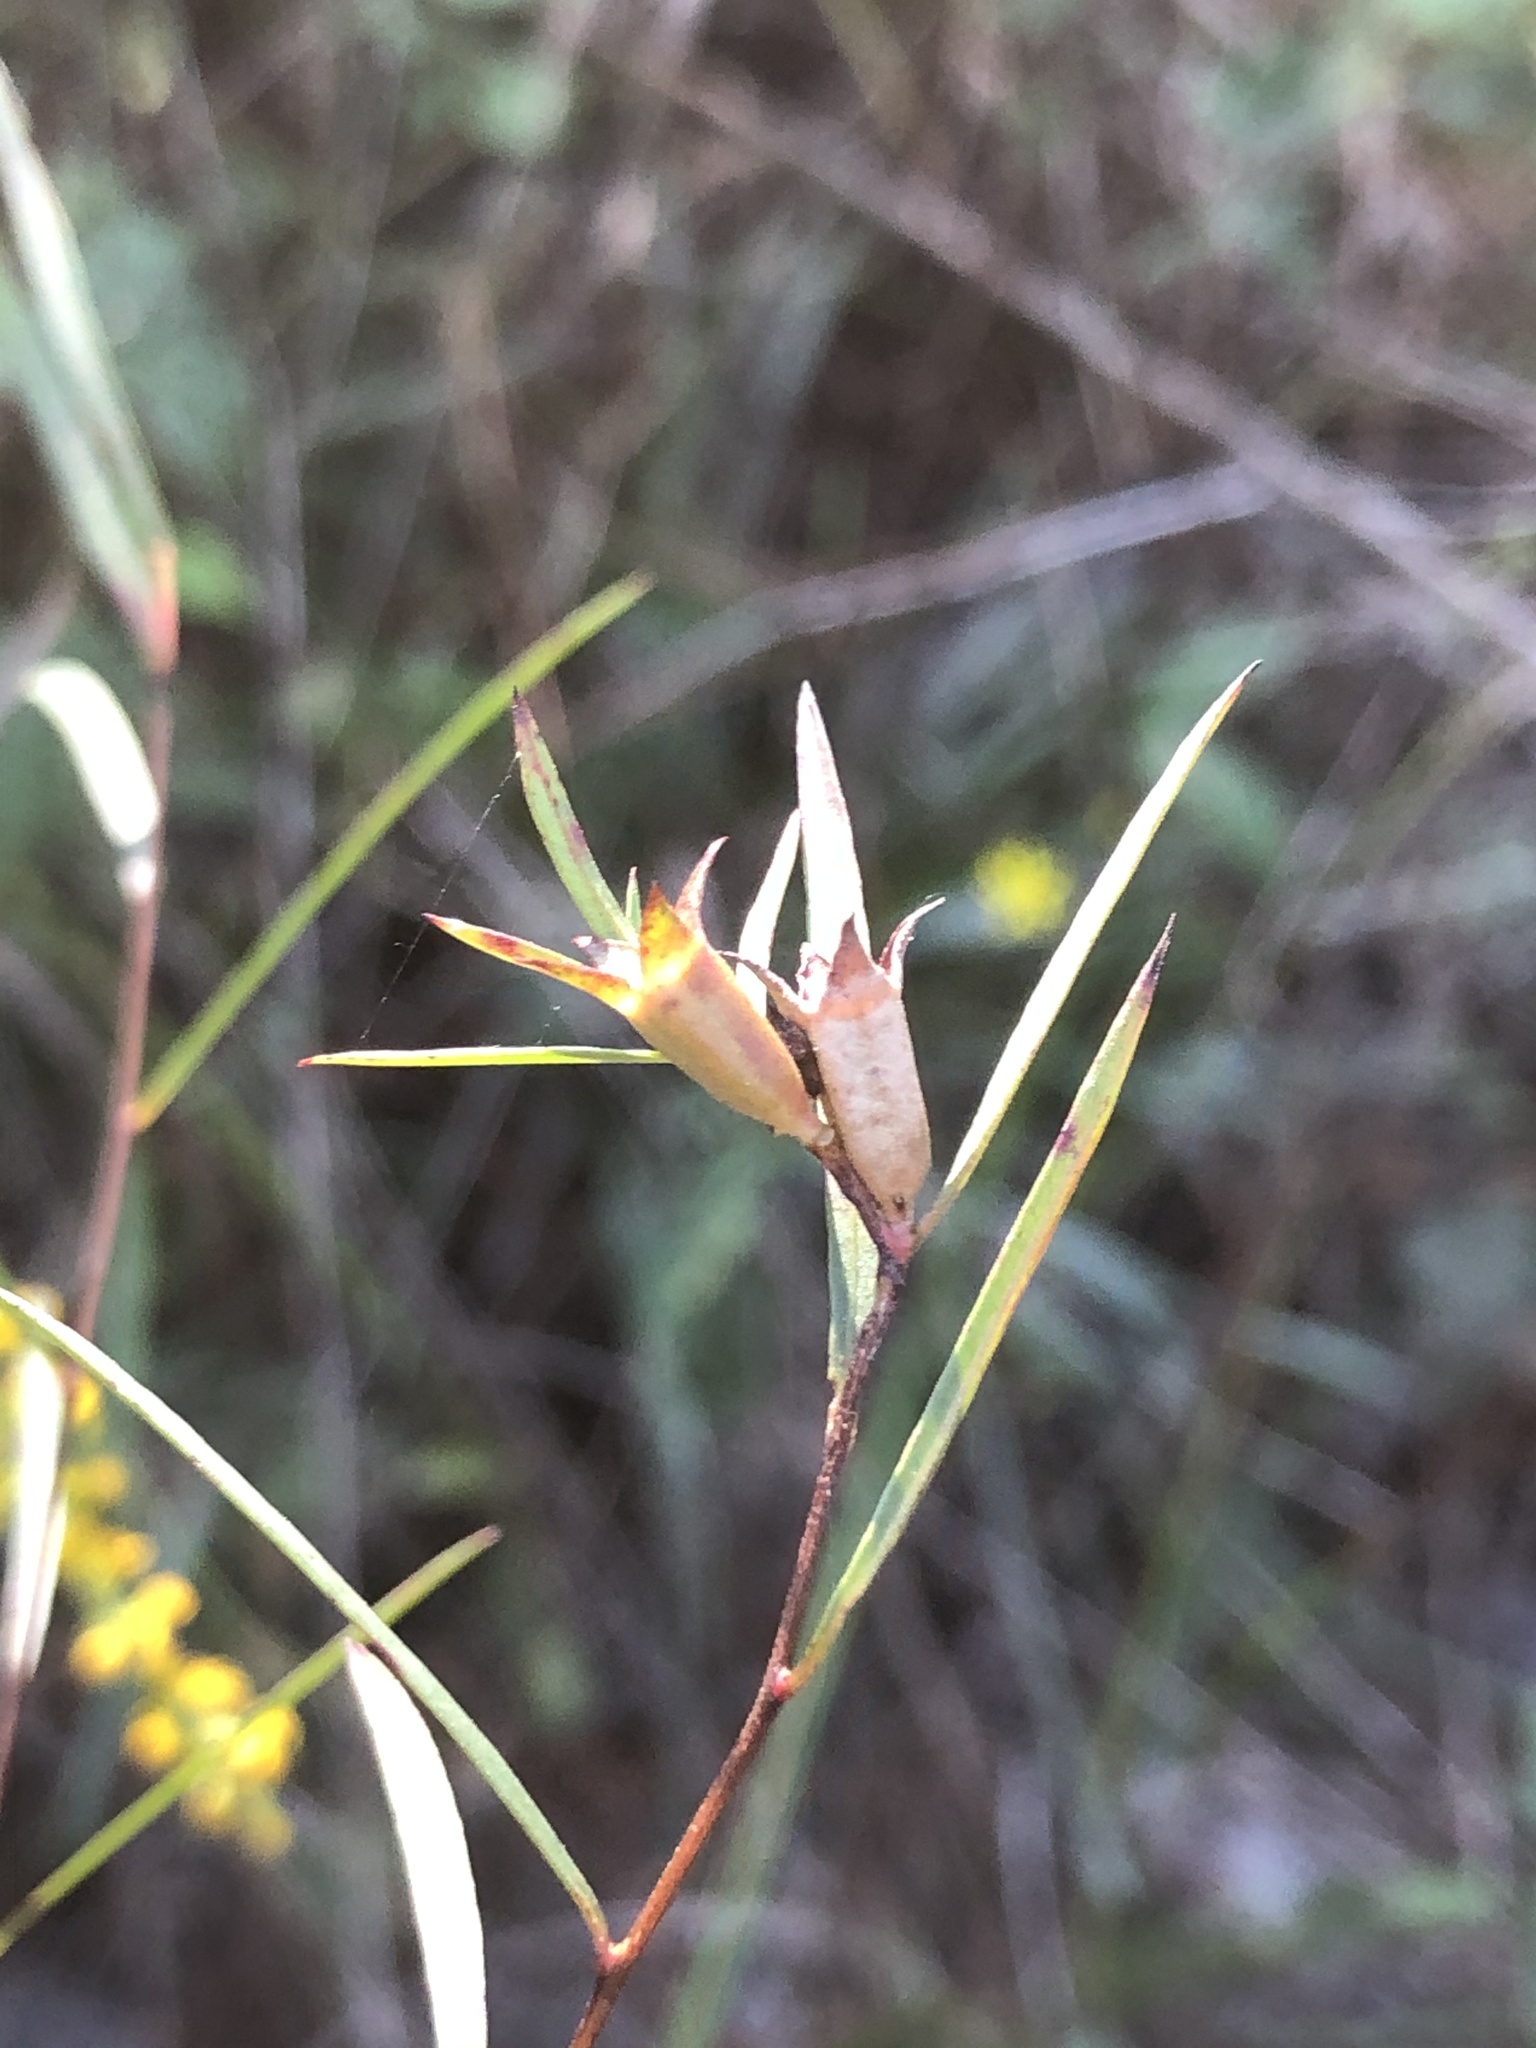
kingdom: Plantae
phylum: Tracheophyta
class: Magnoliopsida
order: Myrtales
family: Onagraceae
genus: Ludwigia
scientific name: Ludwigia linearis
